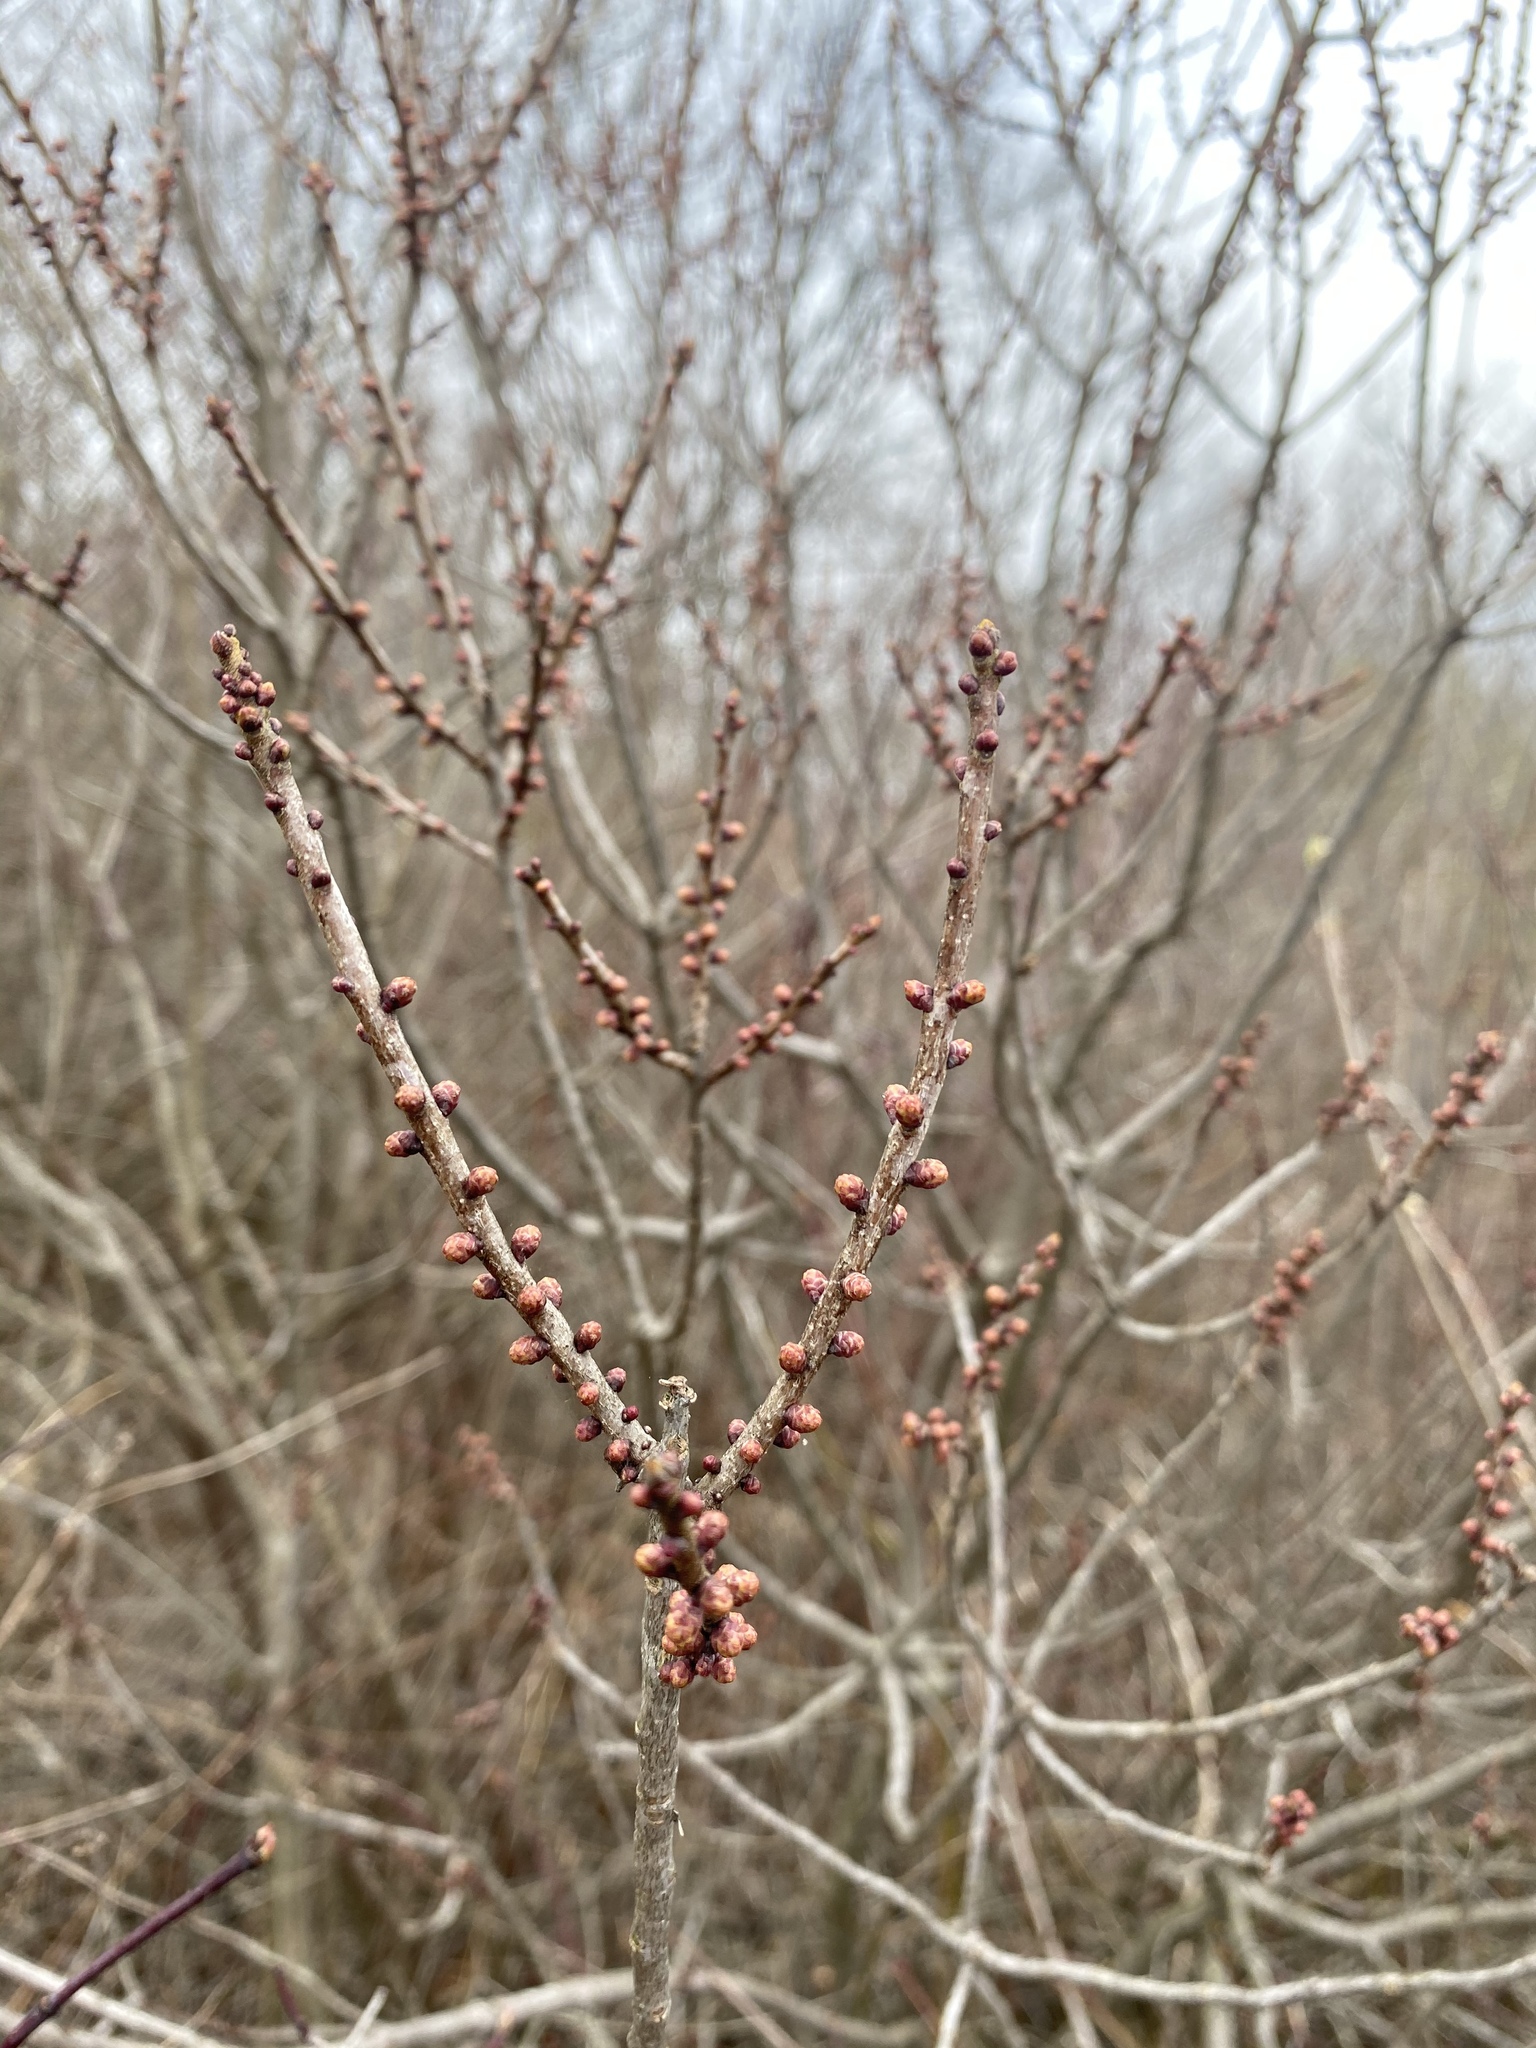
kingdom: Plantae
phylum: Tracheophyta
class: Magnoliopsida
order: Fagales
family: Myricaceae
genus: Morella
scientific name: Morella pensylvanica
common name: Northern bayberry
